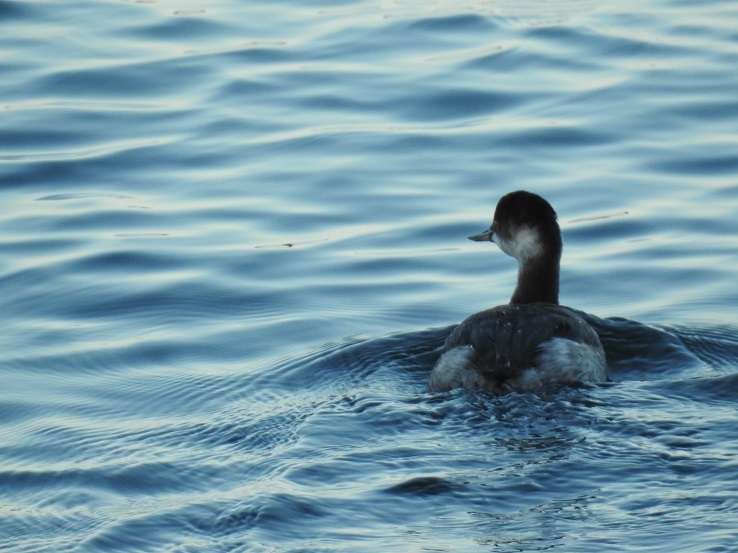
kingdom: Animalia
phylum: Chordata
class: Aves
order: Podicipediformes
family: Podicipedidae
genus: Podiceps
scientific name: Podiceps nigricollis
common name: Black-necked grebe
